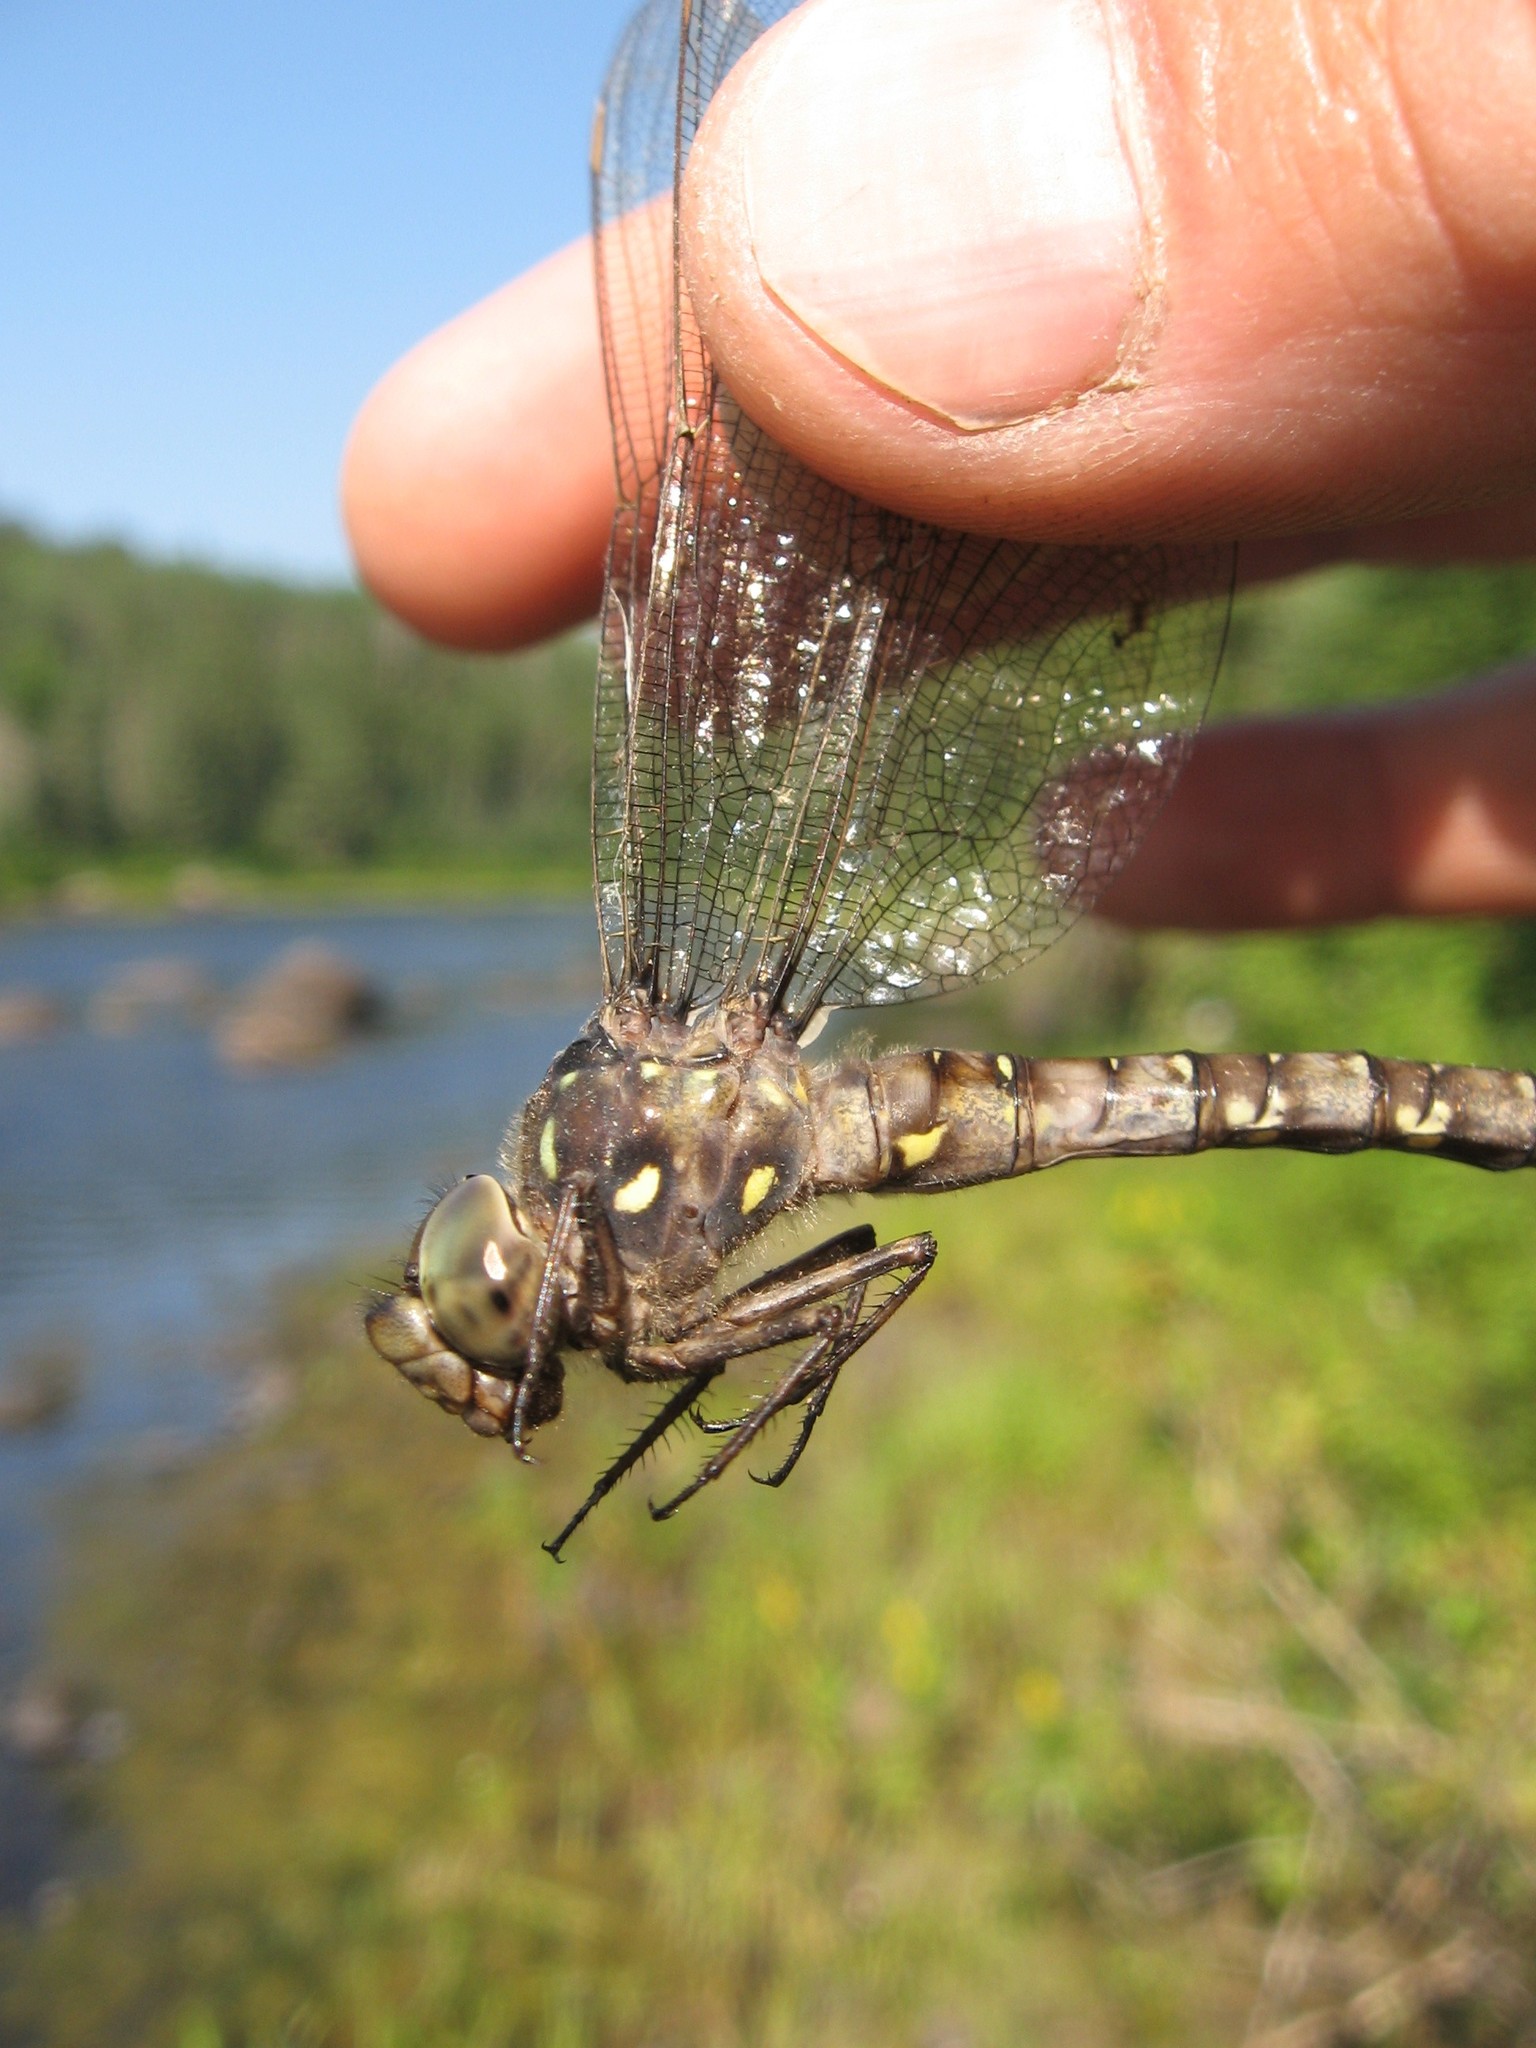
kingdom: Animalia
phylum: Arthropoda
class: Insecta
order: Odonata
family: Aeshnidae
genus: Boyeria
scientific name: Boyeria grafiana
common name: Ocellated darner
